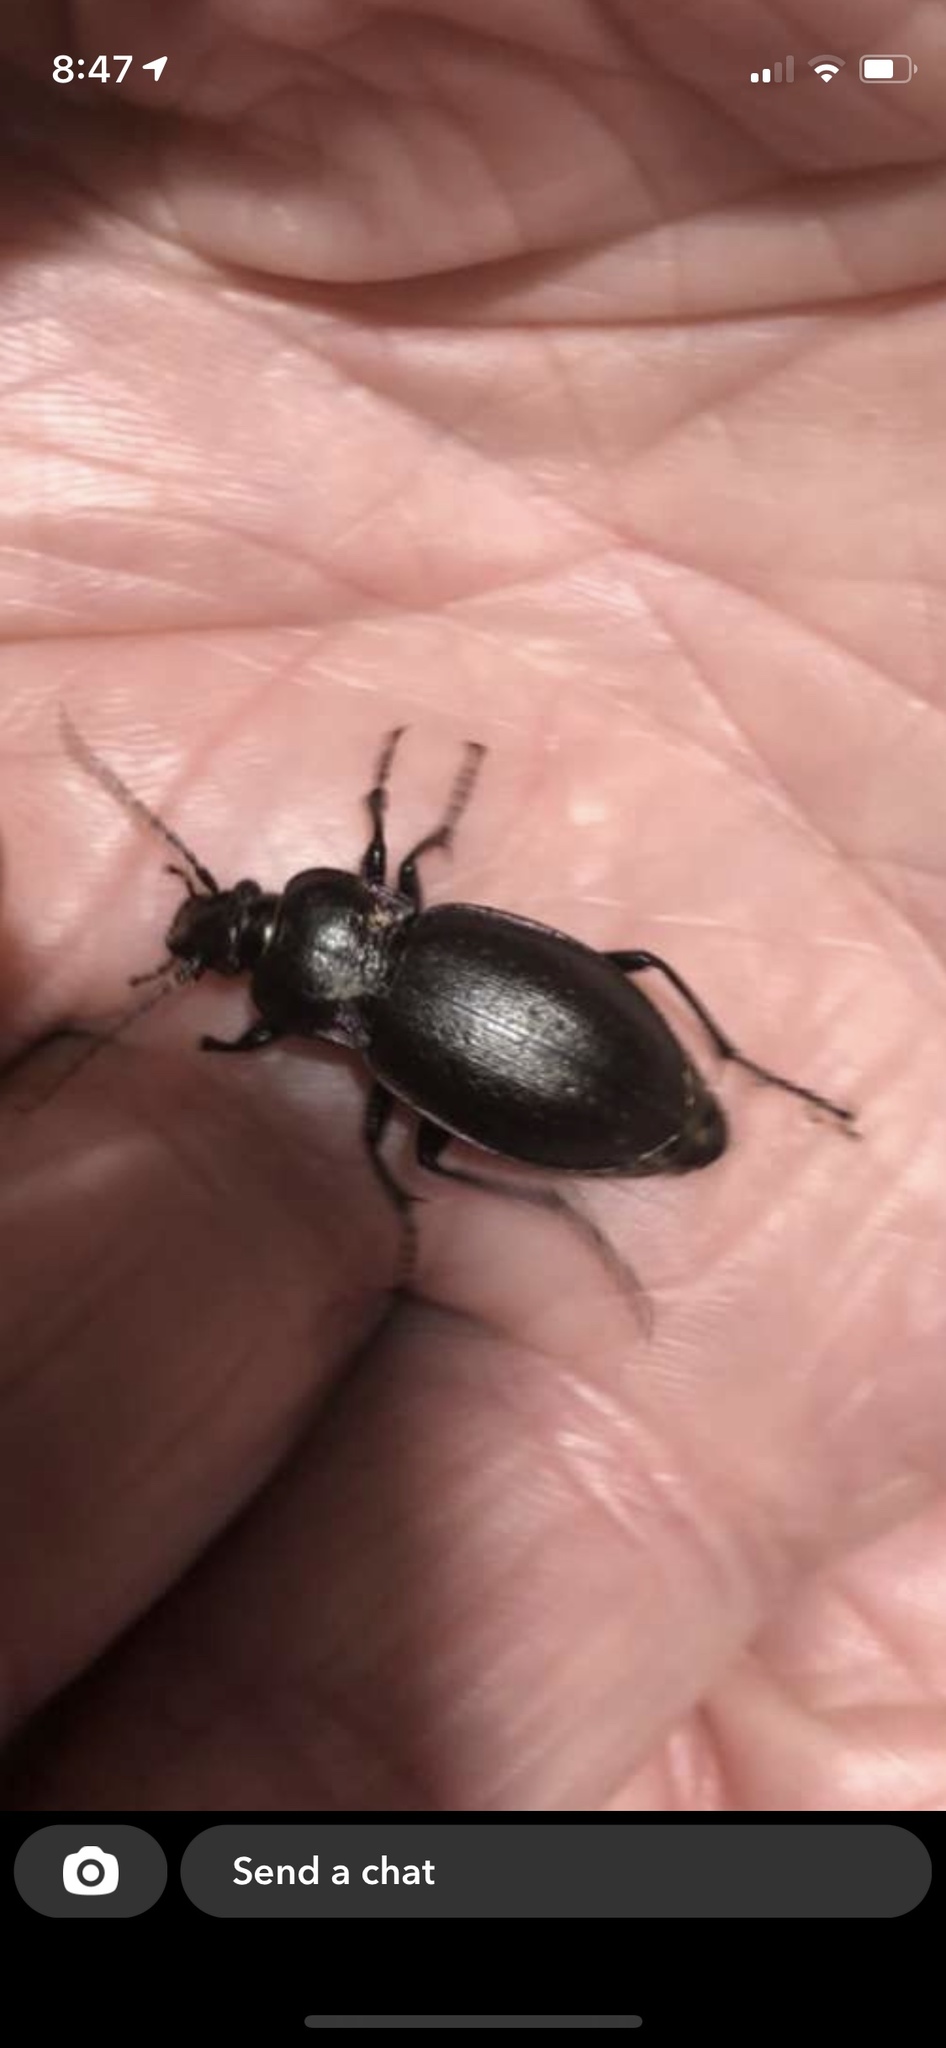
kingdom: Animalia
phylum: Arthropoda
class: Insecta
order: Coleoptera
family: Carabidae
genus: Carabus
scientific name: Carabus nemoralis
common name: European ground beetle
